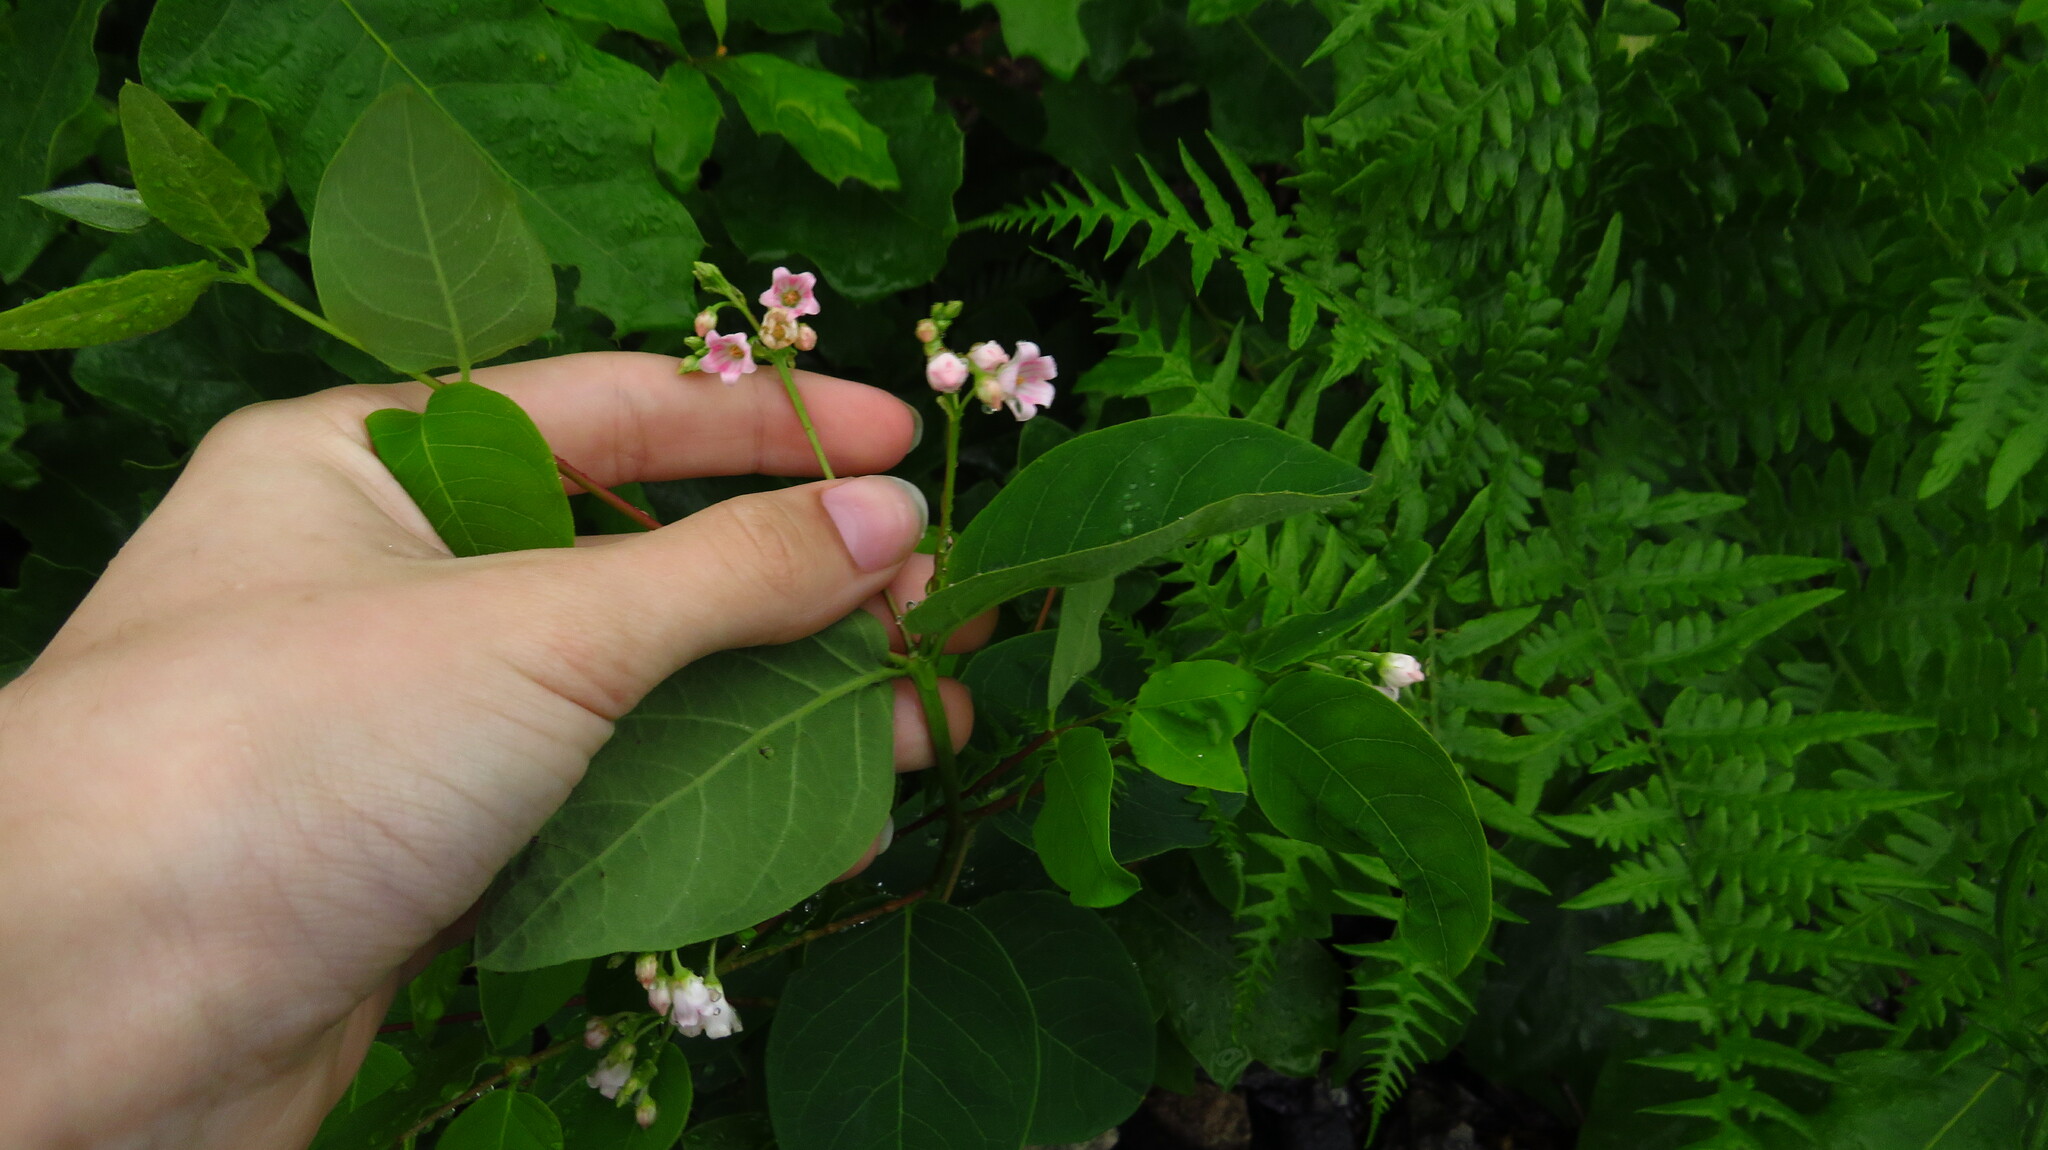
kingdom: Plantae
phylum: Tracheophyta
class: Magnoliopsida
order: Gentianales
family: Apocynaceae
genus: Apocynum
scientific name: Apocynum androsaemifolium
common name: Spreading dogbane
